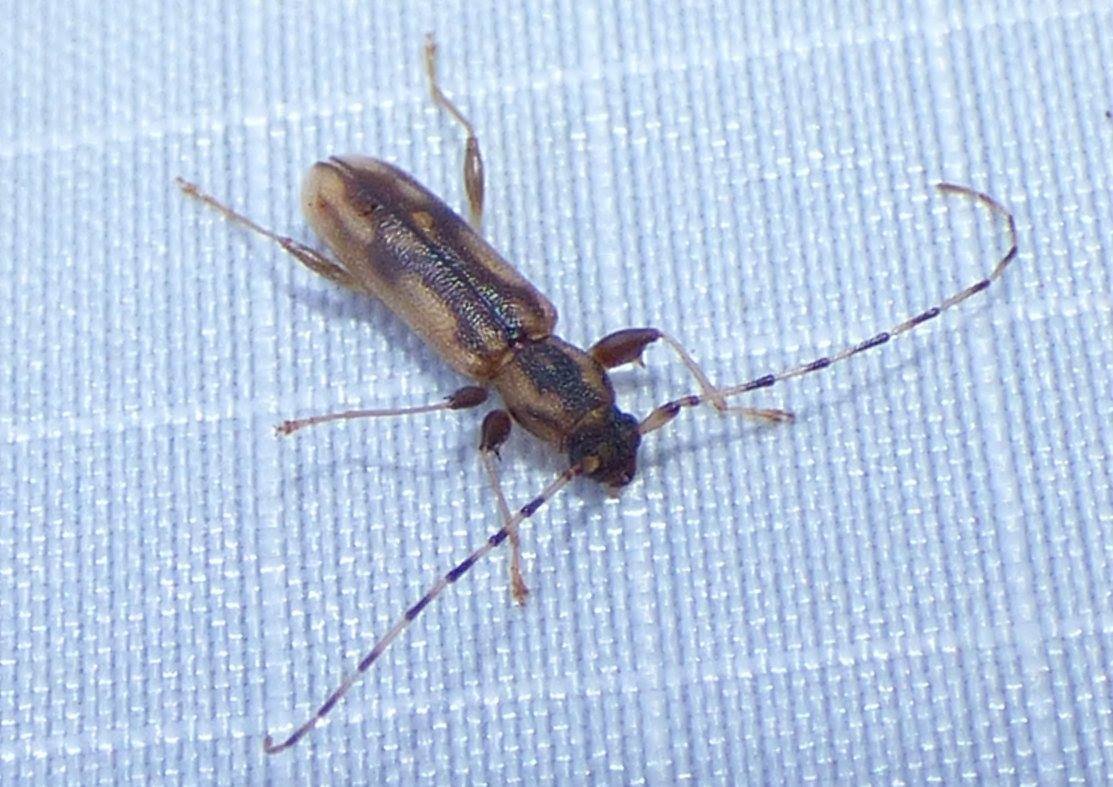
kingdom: Animalia
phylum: Arthropoda
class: Insecta
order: Coleoptera
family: Cerambycidae
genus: Curius
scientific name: Curius dentatus
